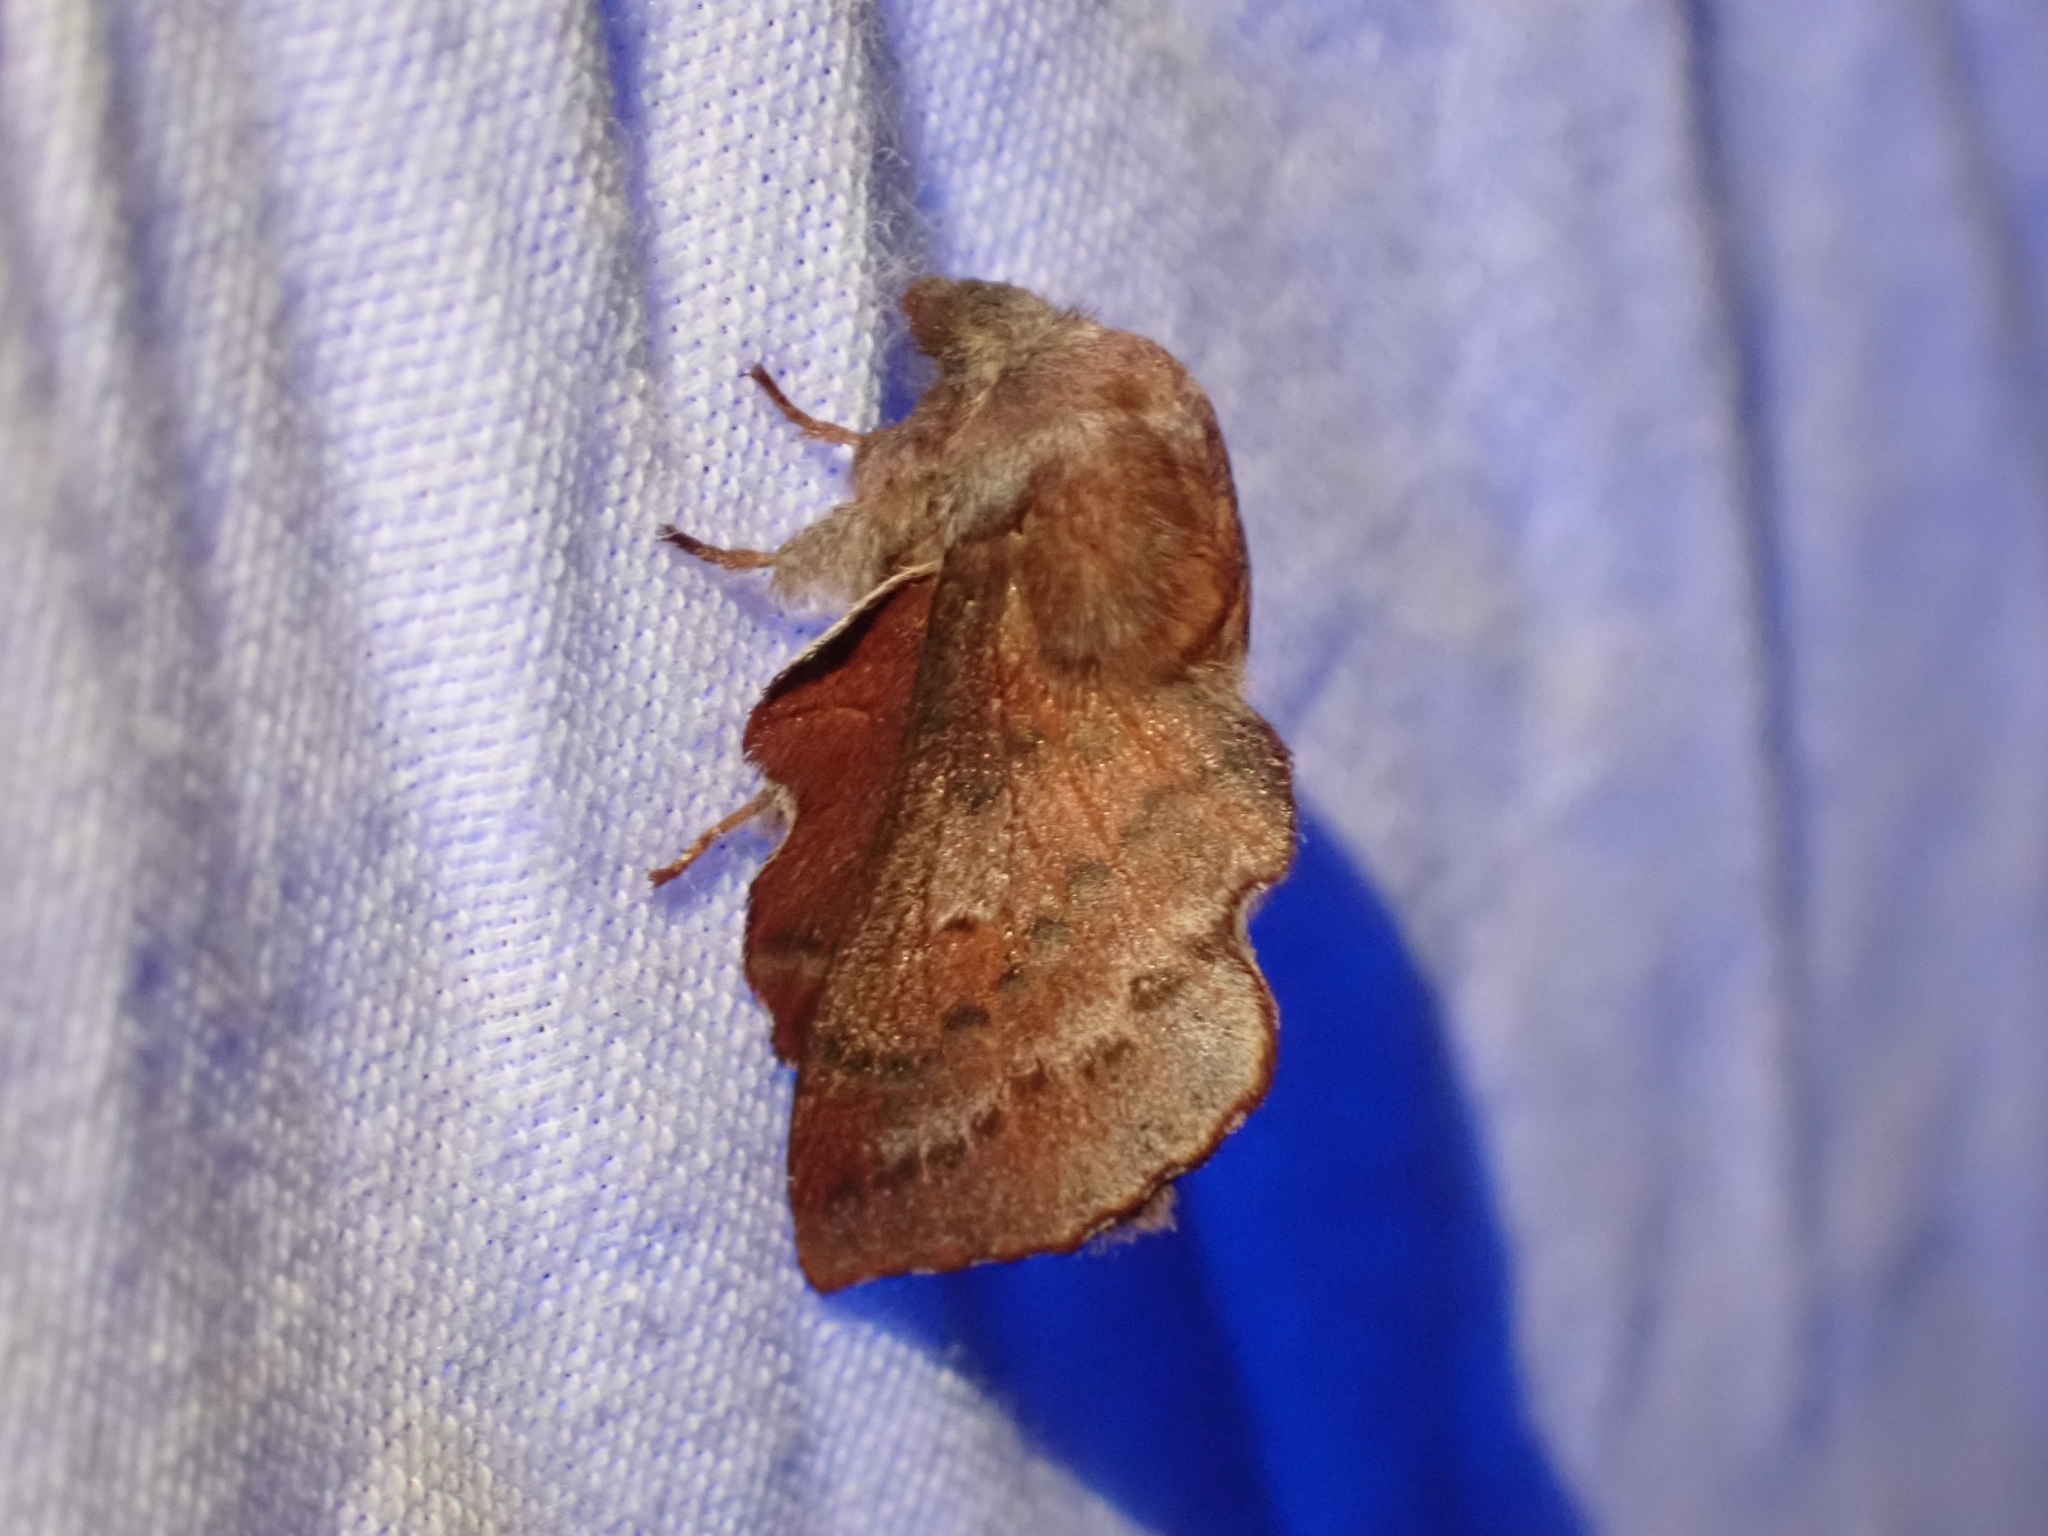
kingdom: Animalia
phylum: Arthropoda
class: Insecta
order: Lepidoptera
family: Lasiocampidae
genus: Phyllodesma
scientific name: Phyllodesma americana
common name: American lappet moth
